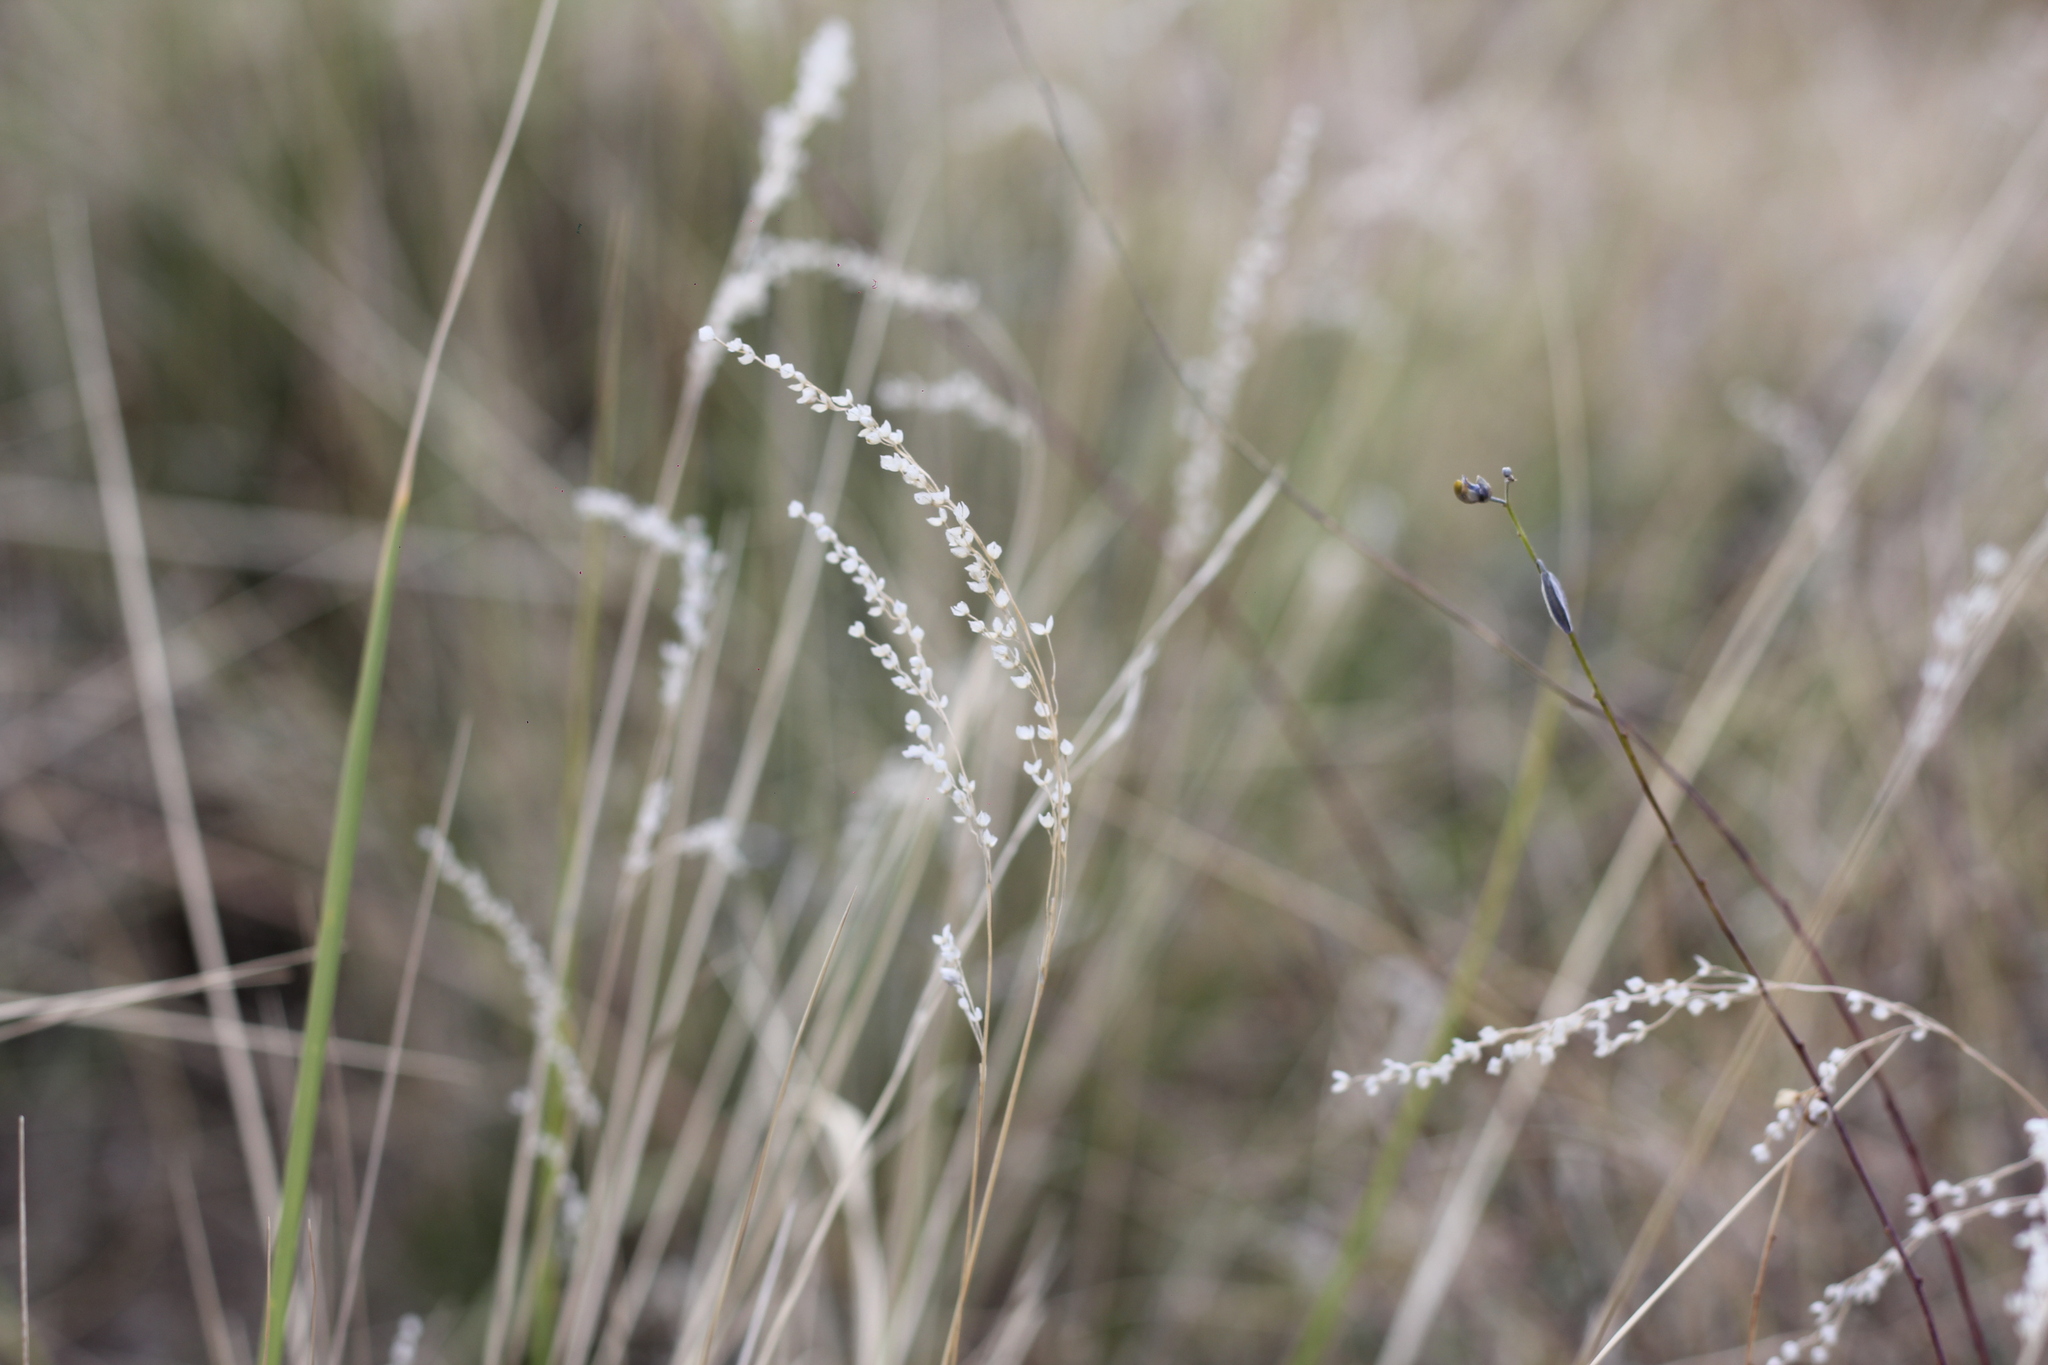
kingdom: Plantae
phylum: Tracheophyta
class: Liliopsida
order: Poales
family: Poaceae
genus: Chascolytrum
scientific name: Chascolytrum subaristatum
